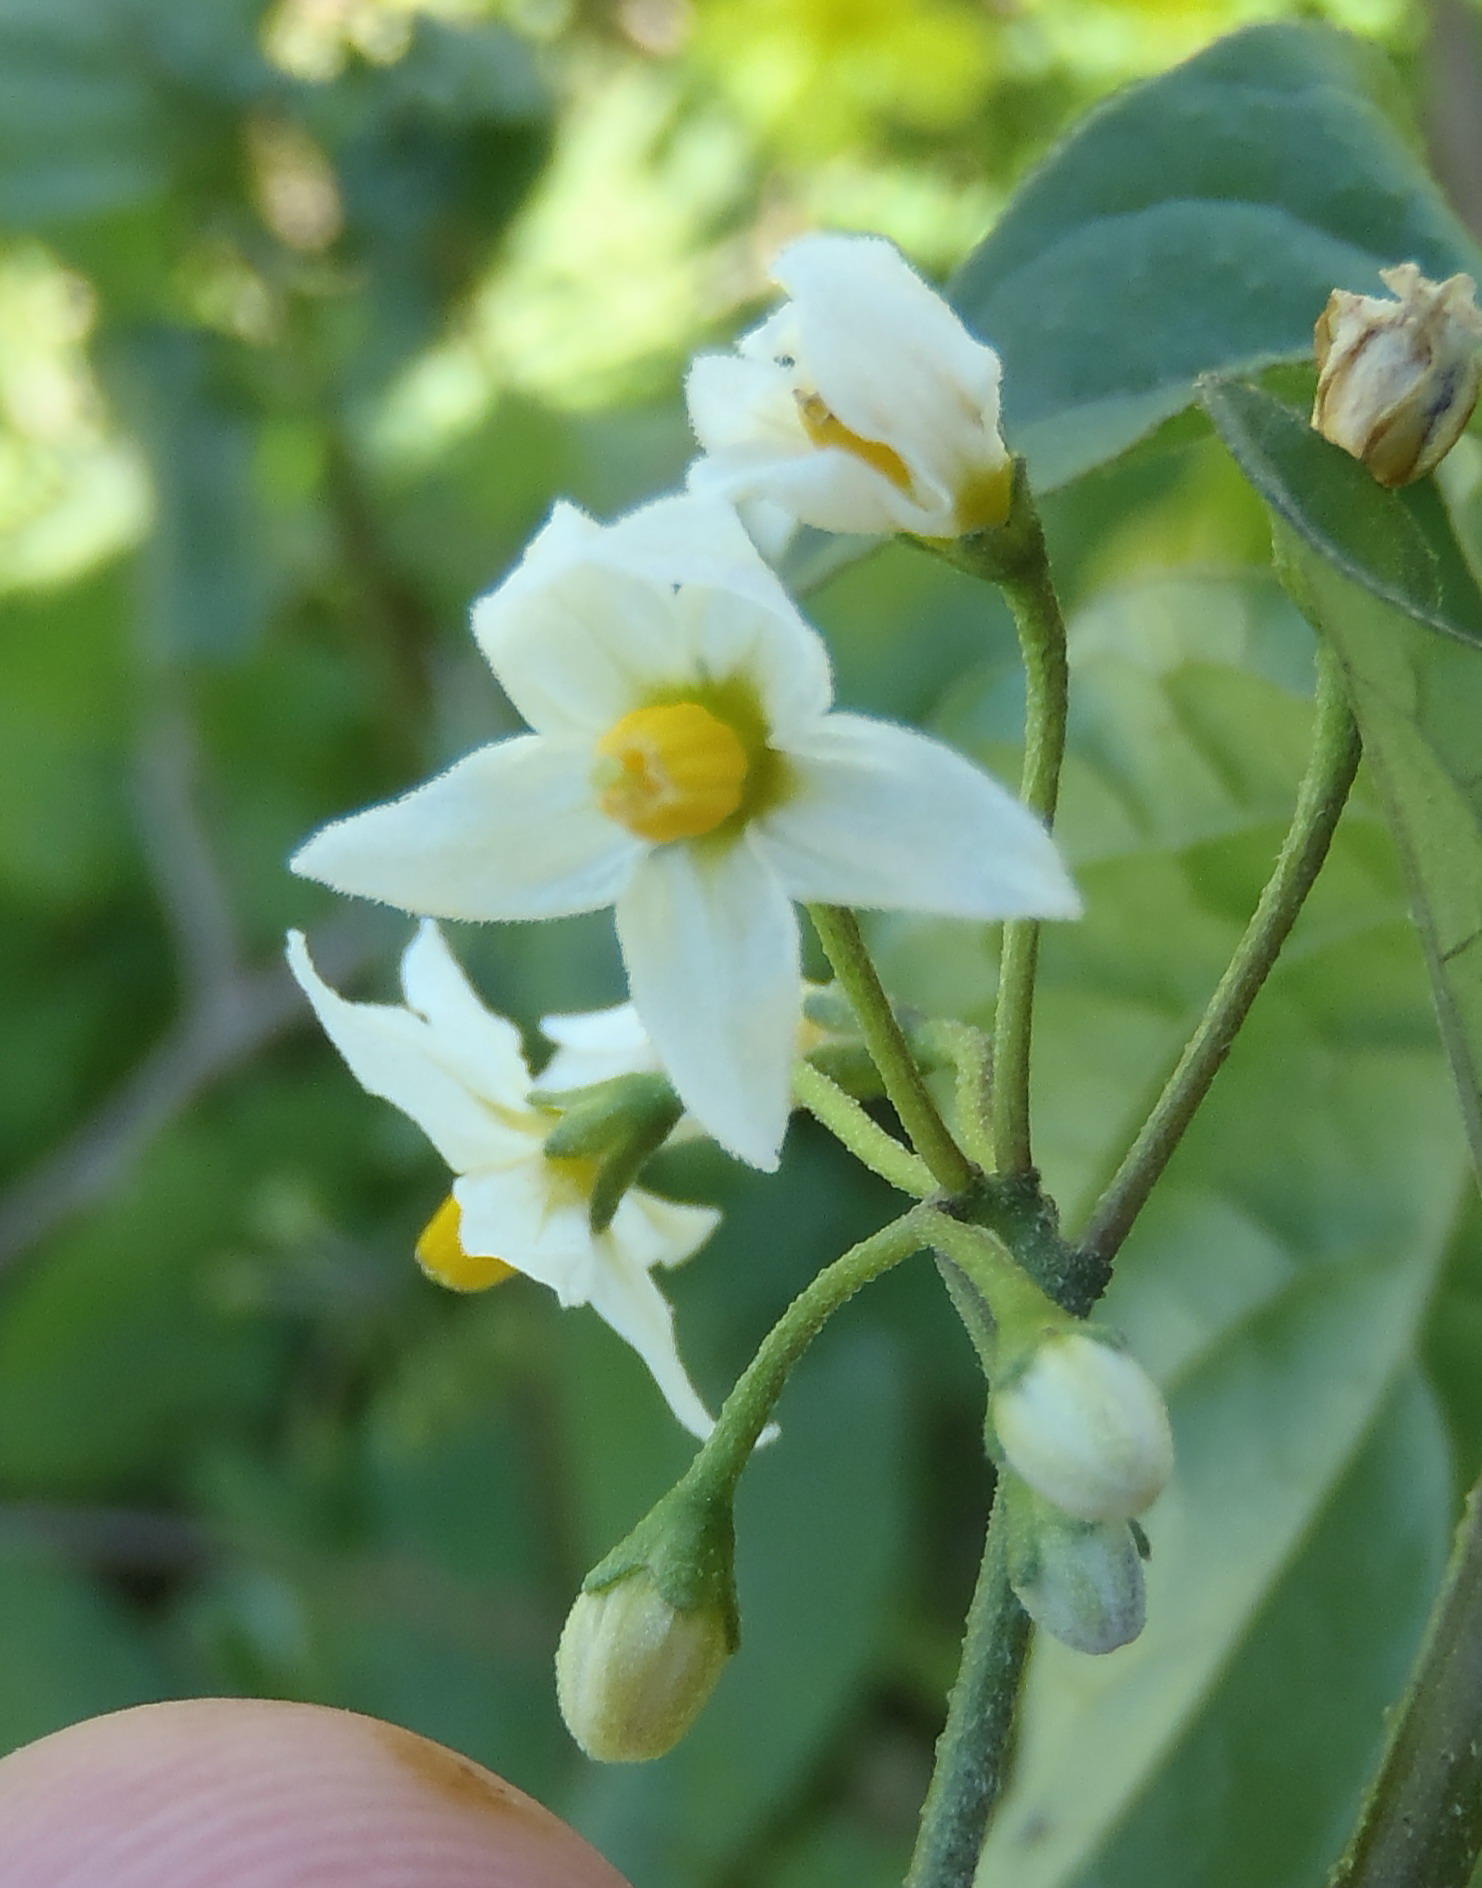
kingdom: Plantae
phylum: Tracheophyta
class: Magnoliopsida
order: Solanales
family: Solanaceae
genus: Solanum
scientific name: Solanum nigrum
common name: Black nightshade
